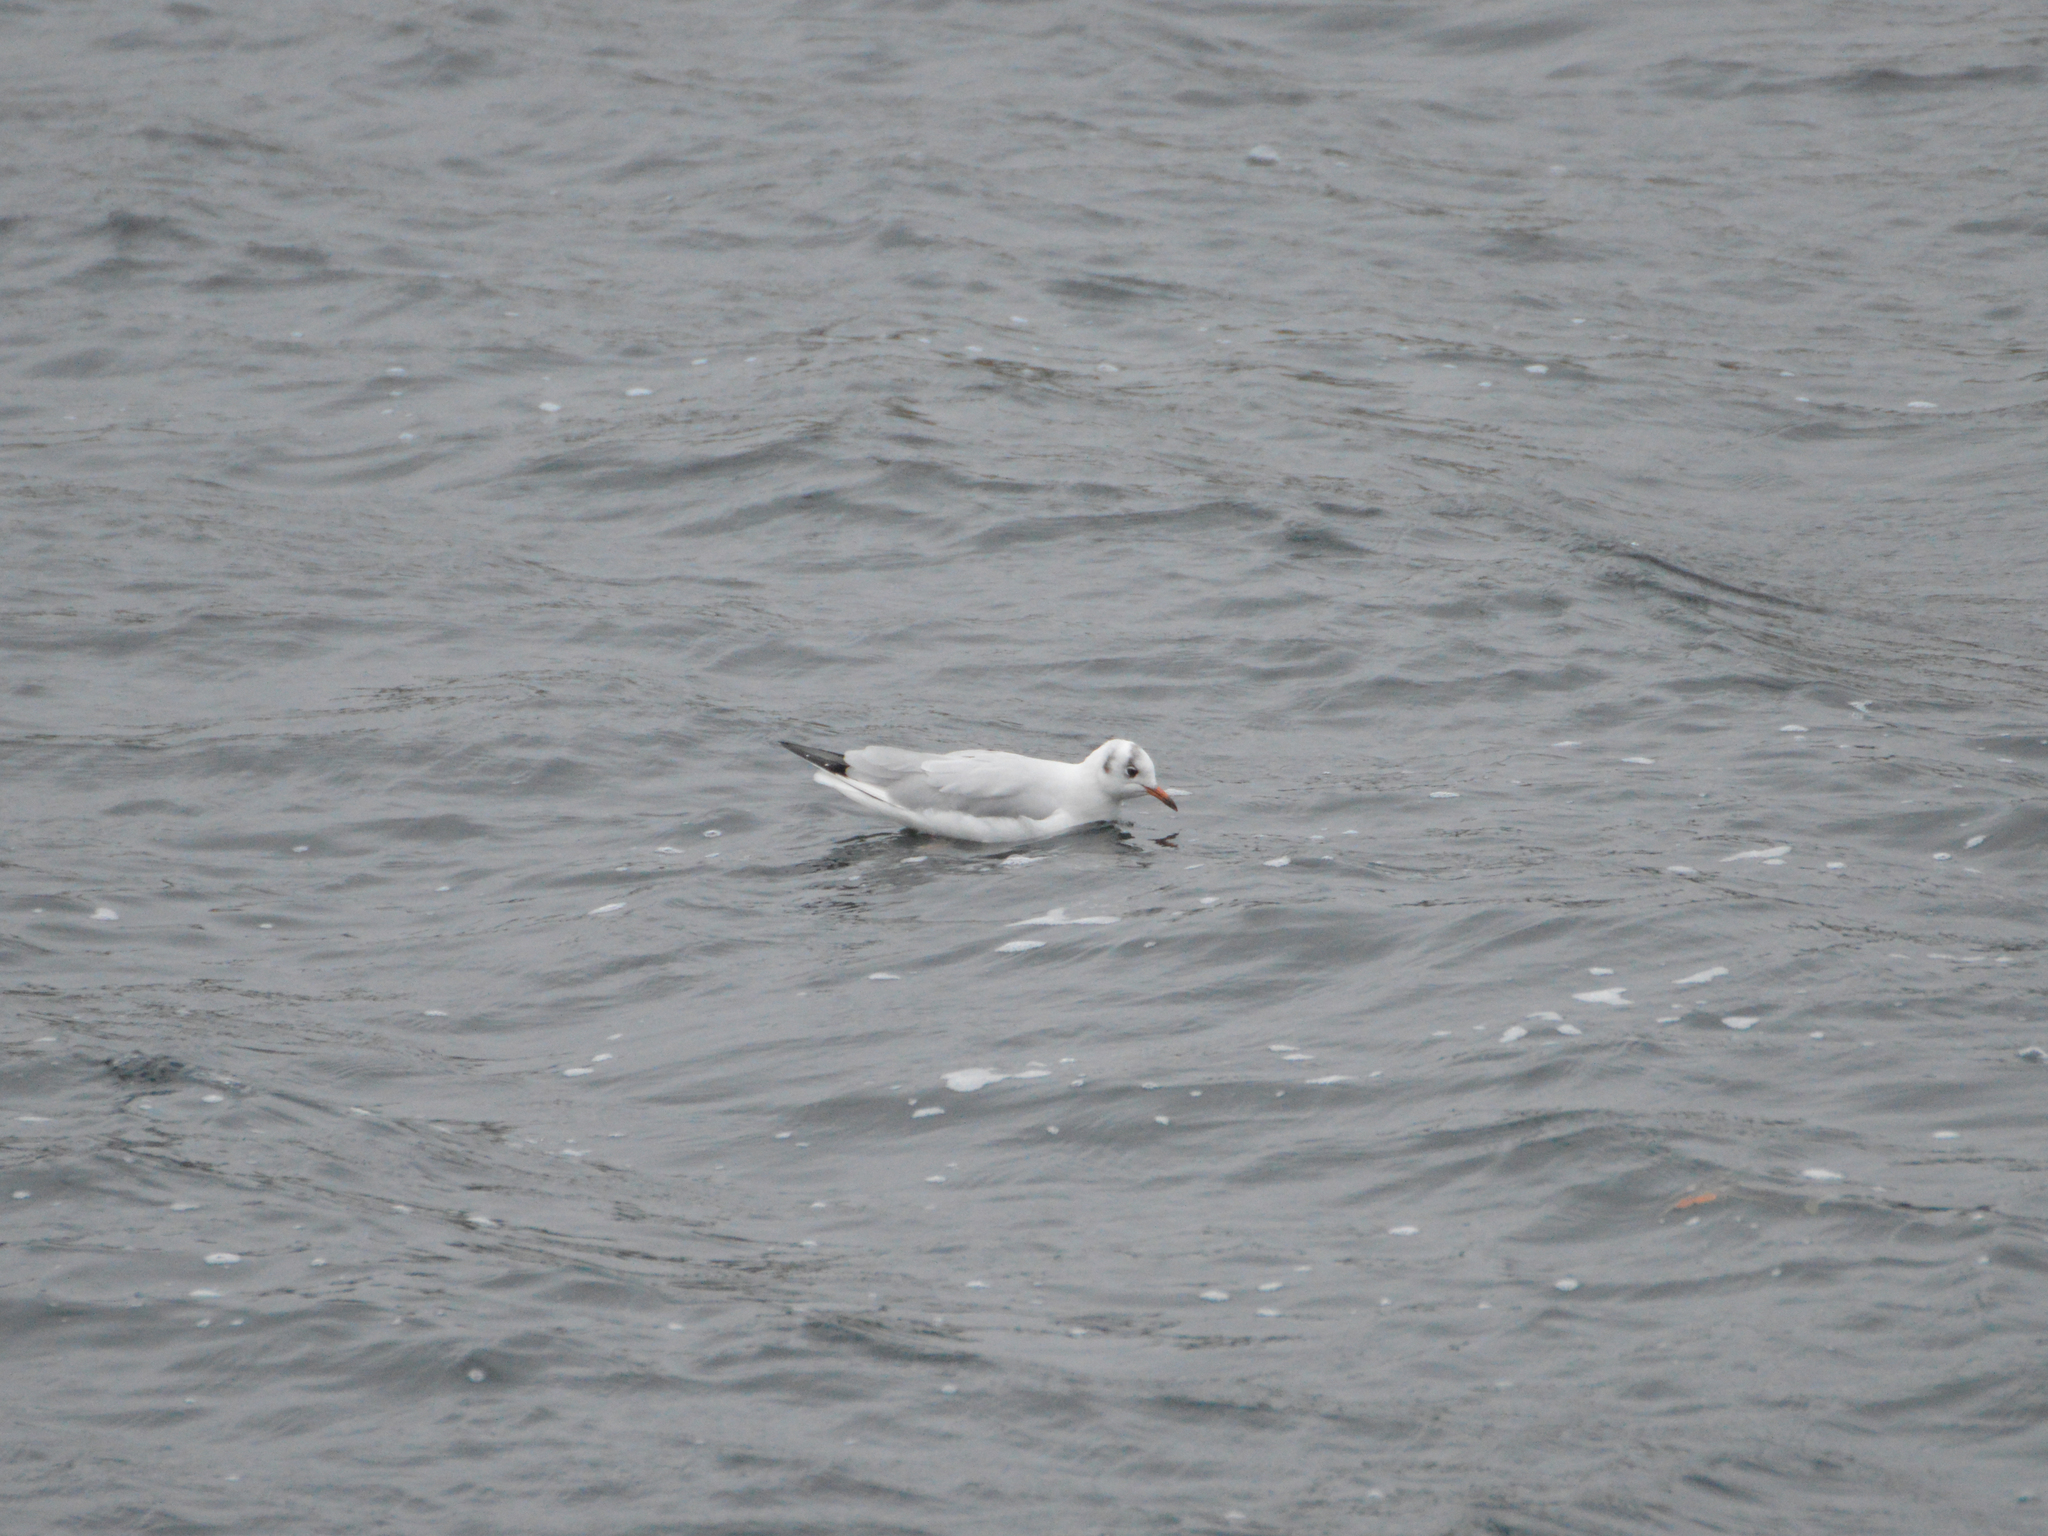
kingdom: Animalia
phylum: Chordata
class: Aves
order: Charadriiformes
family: Laridae
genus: Chroicocephalus
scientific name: Chroicocephalus ridibundus
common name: Black-headed gull
